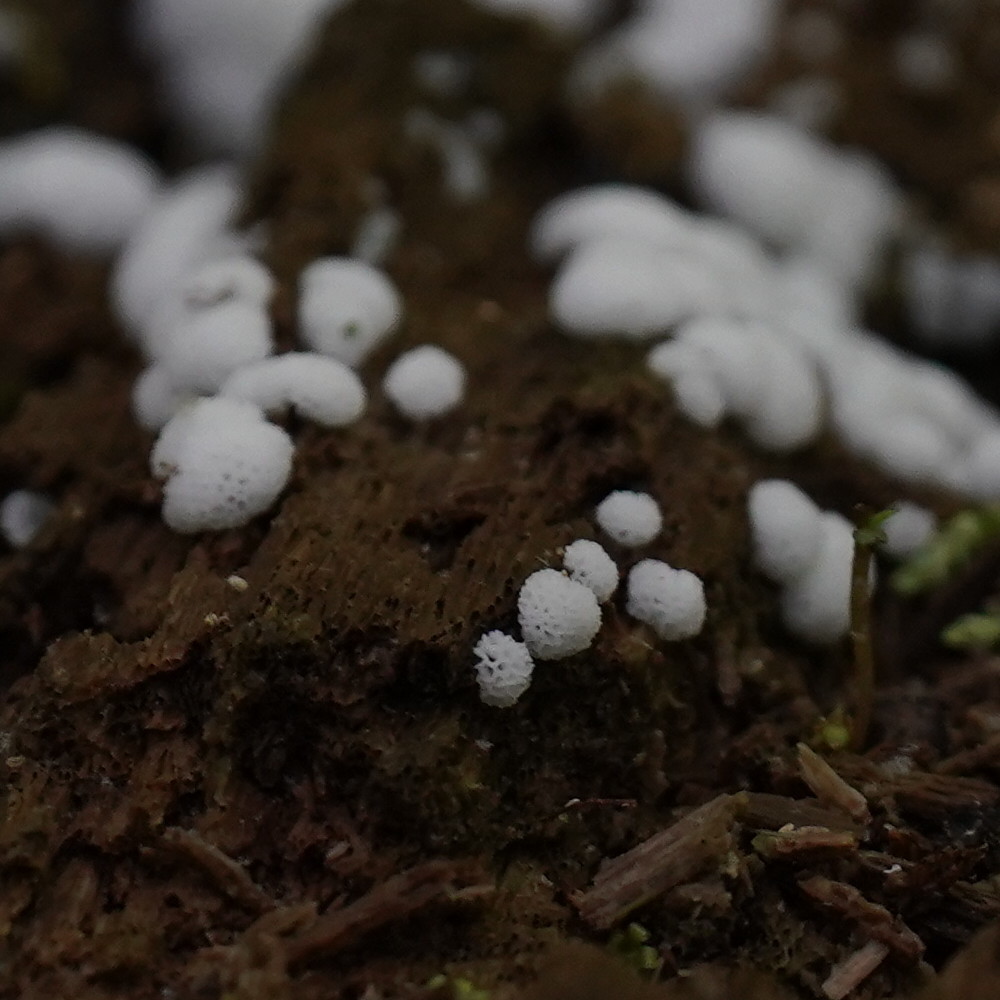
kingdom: Protozoa
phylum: Mycetozoa
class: Protosteliomycetes
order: Ceratiomyxales
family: Ceratiomyxaceae
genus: Ceratiomyxa
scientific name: Ceratiomyxa fruticulosa
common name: Honeycomb coral slime mold
